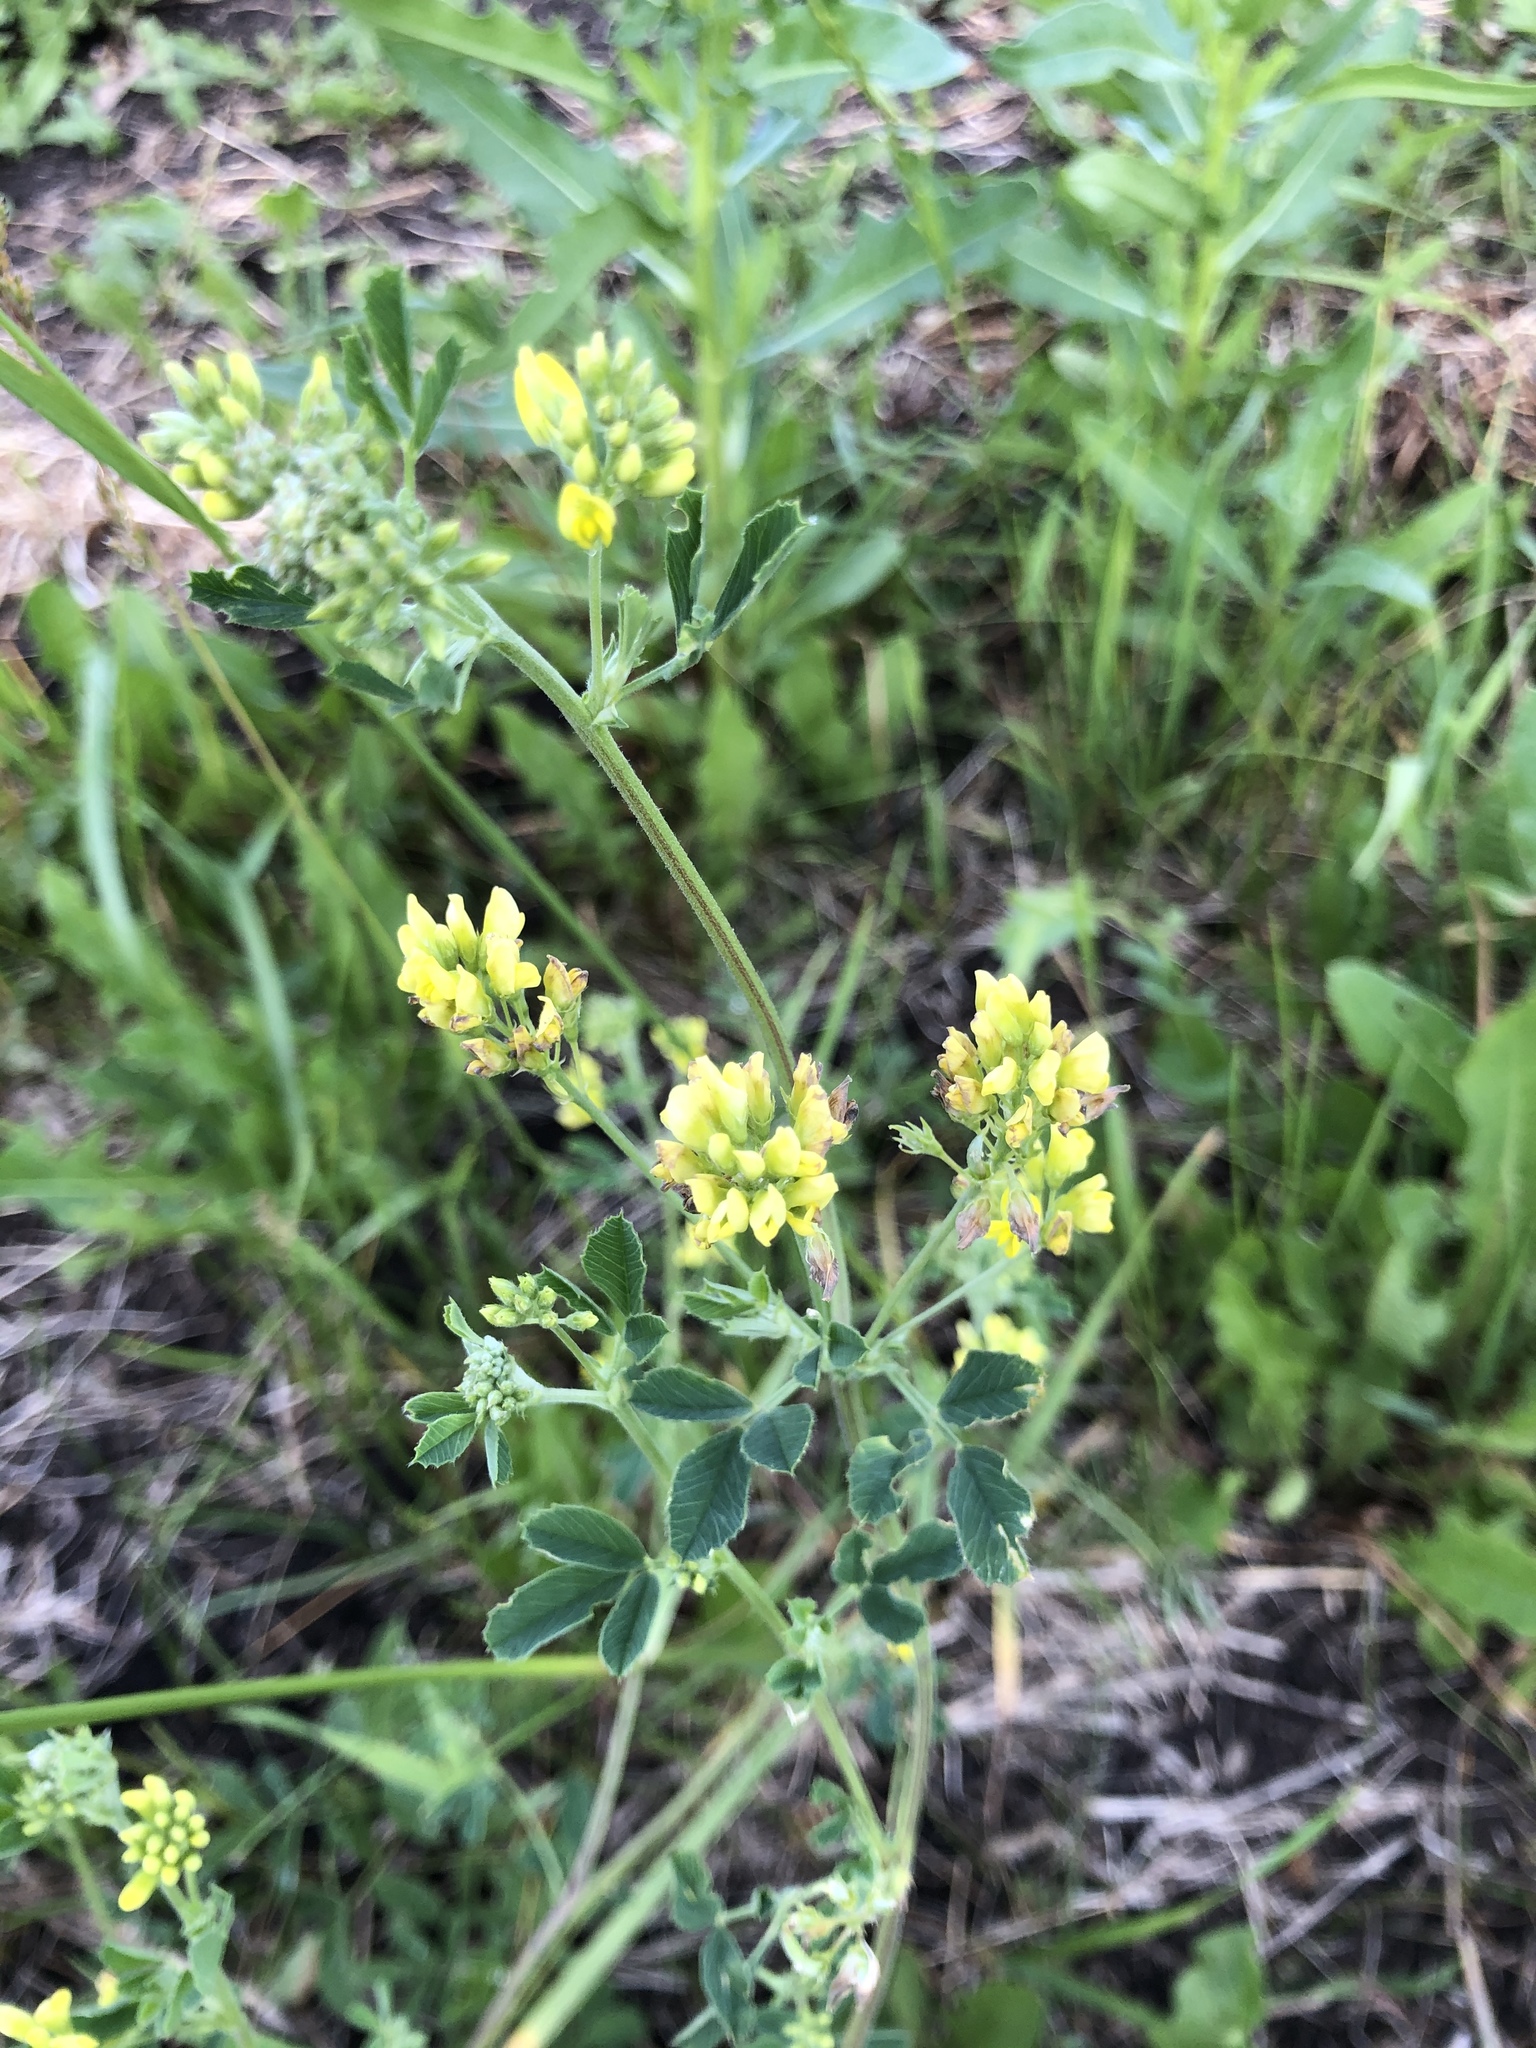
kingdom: Plantae
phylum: Tracheophyta
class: Magnoliopsida
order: Fabales
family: Fabaceae
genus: Medicago
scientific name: Medicago falcata
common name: Sickle medick
